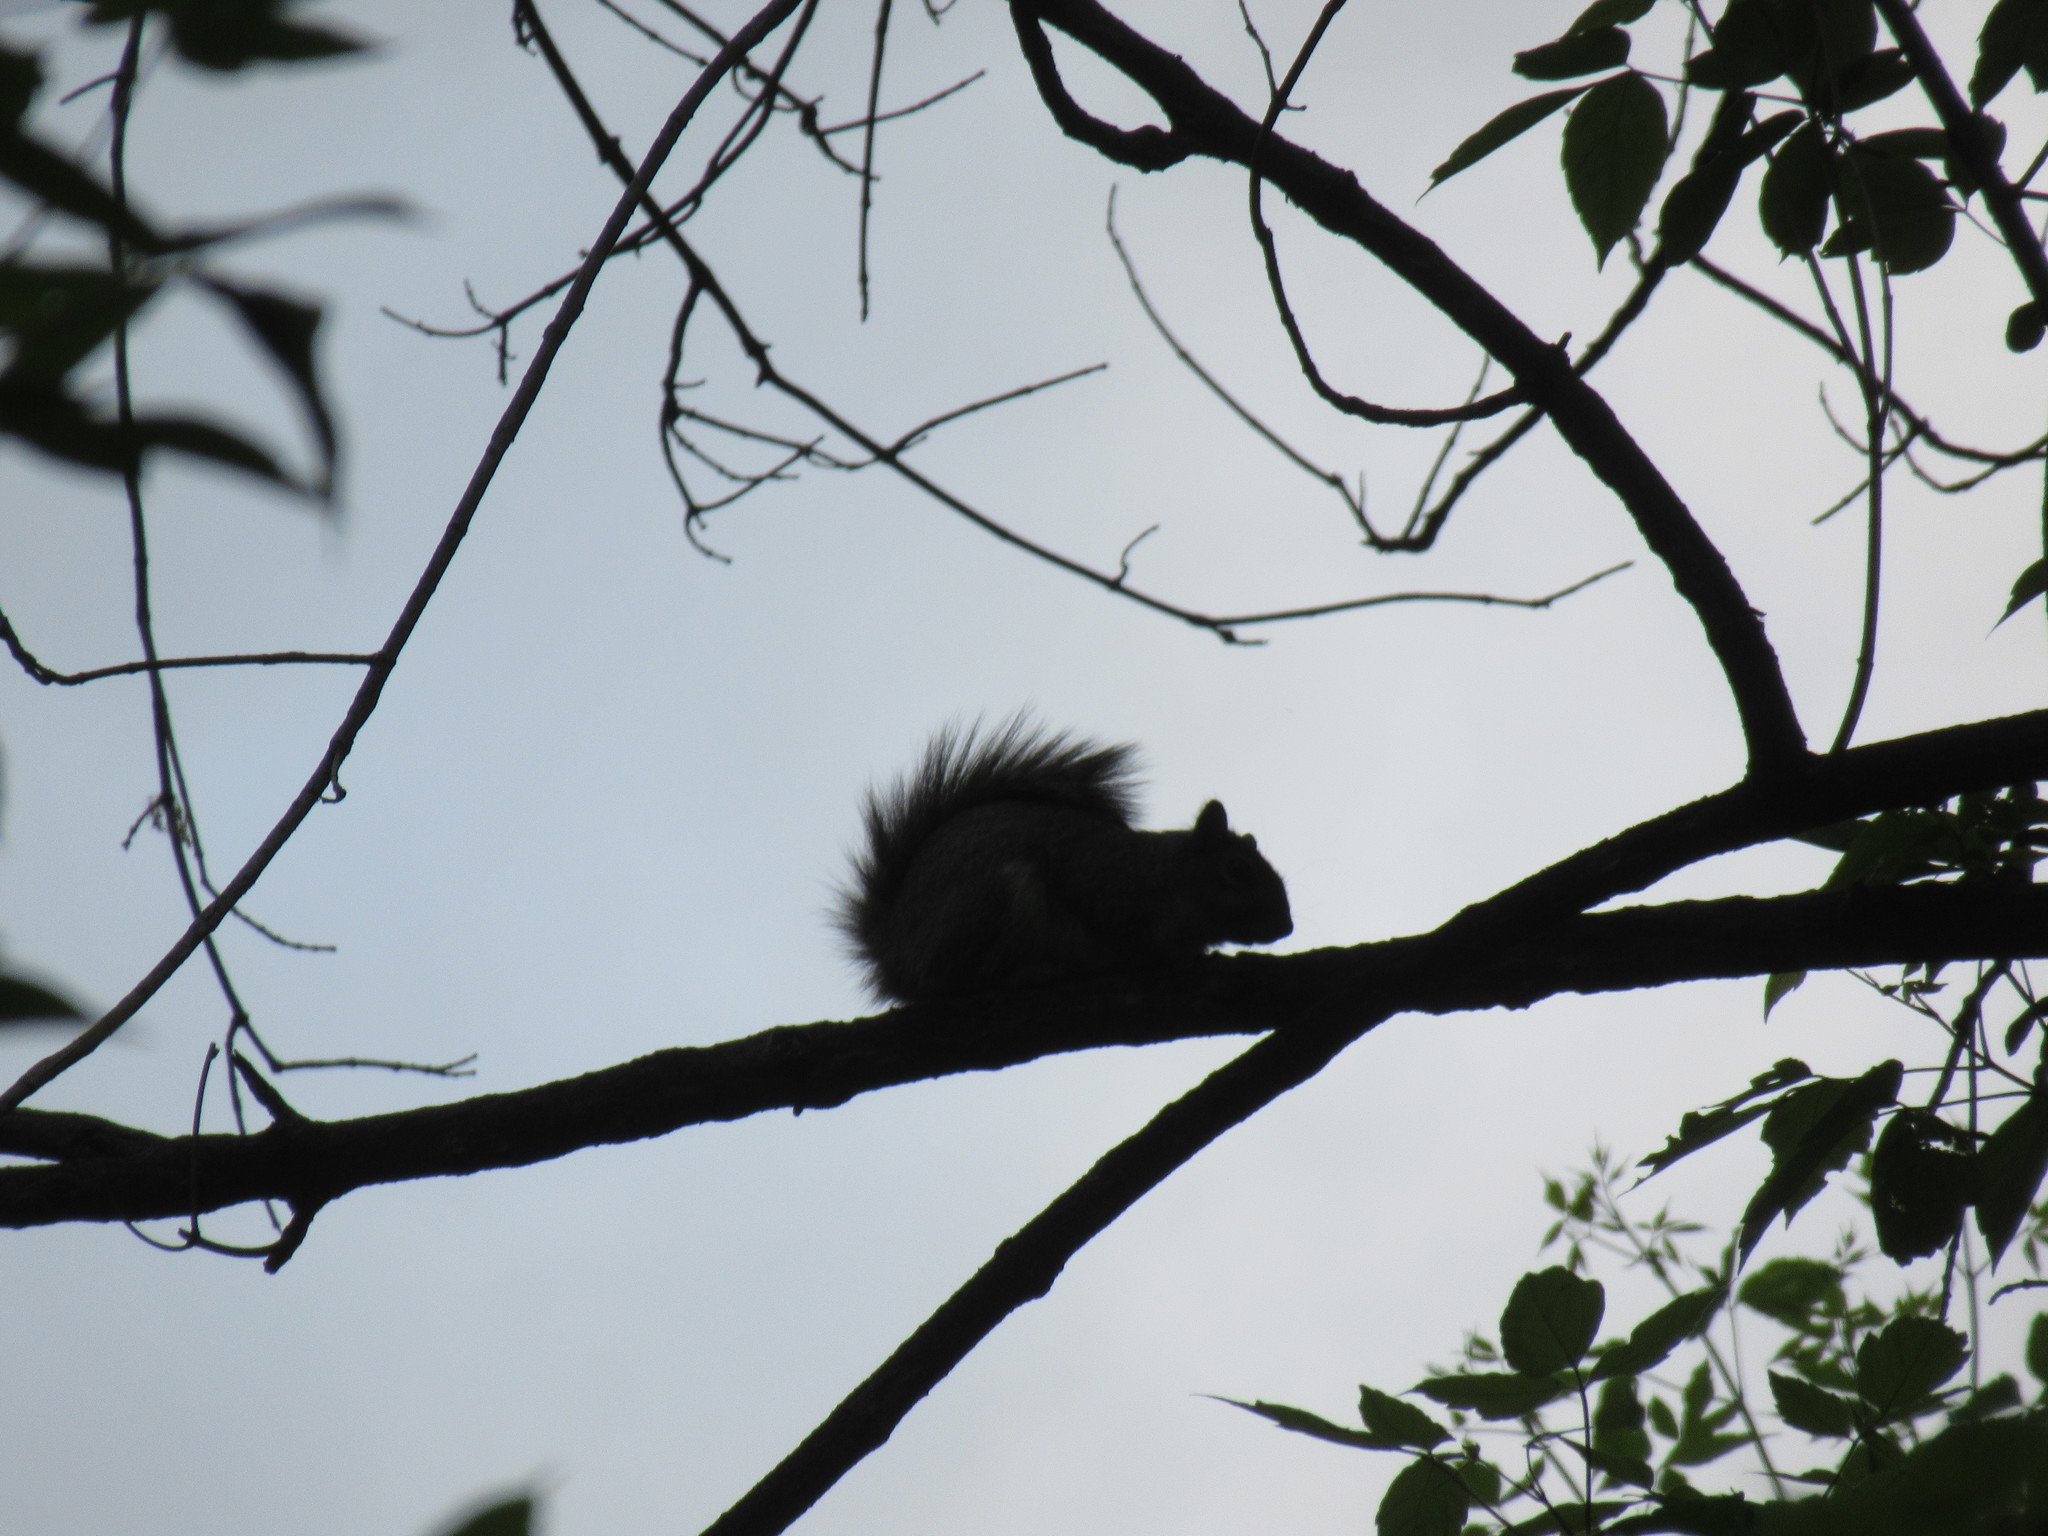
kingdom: Animalia
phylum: Chordata
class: Mammalia
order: Rodentia
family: Sciuridae
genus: Sciurus
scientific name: Sciurus carolinensis
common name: Eastern gray squirrel
